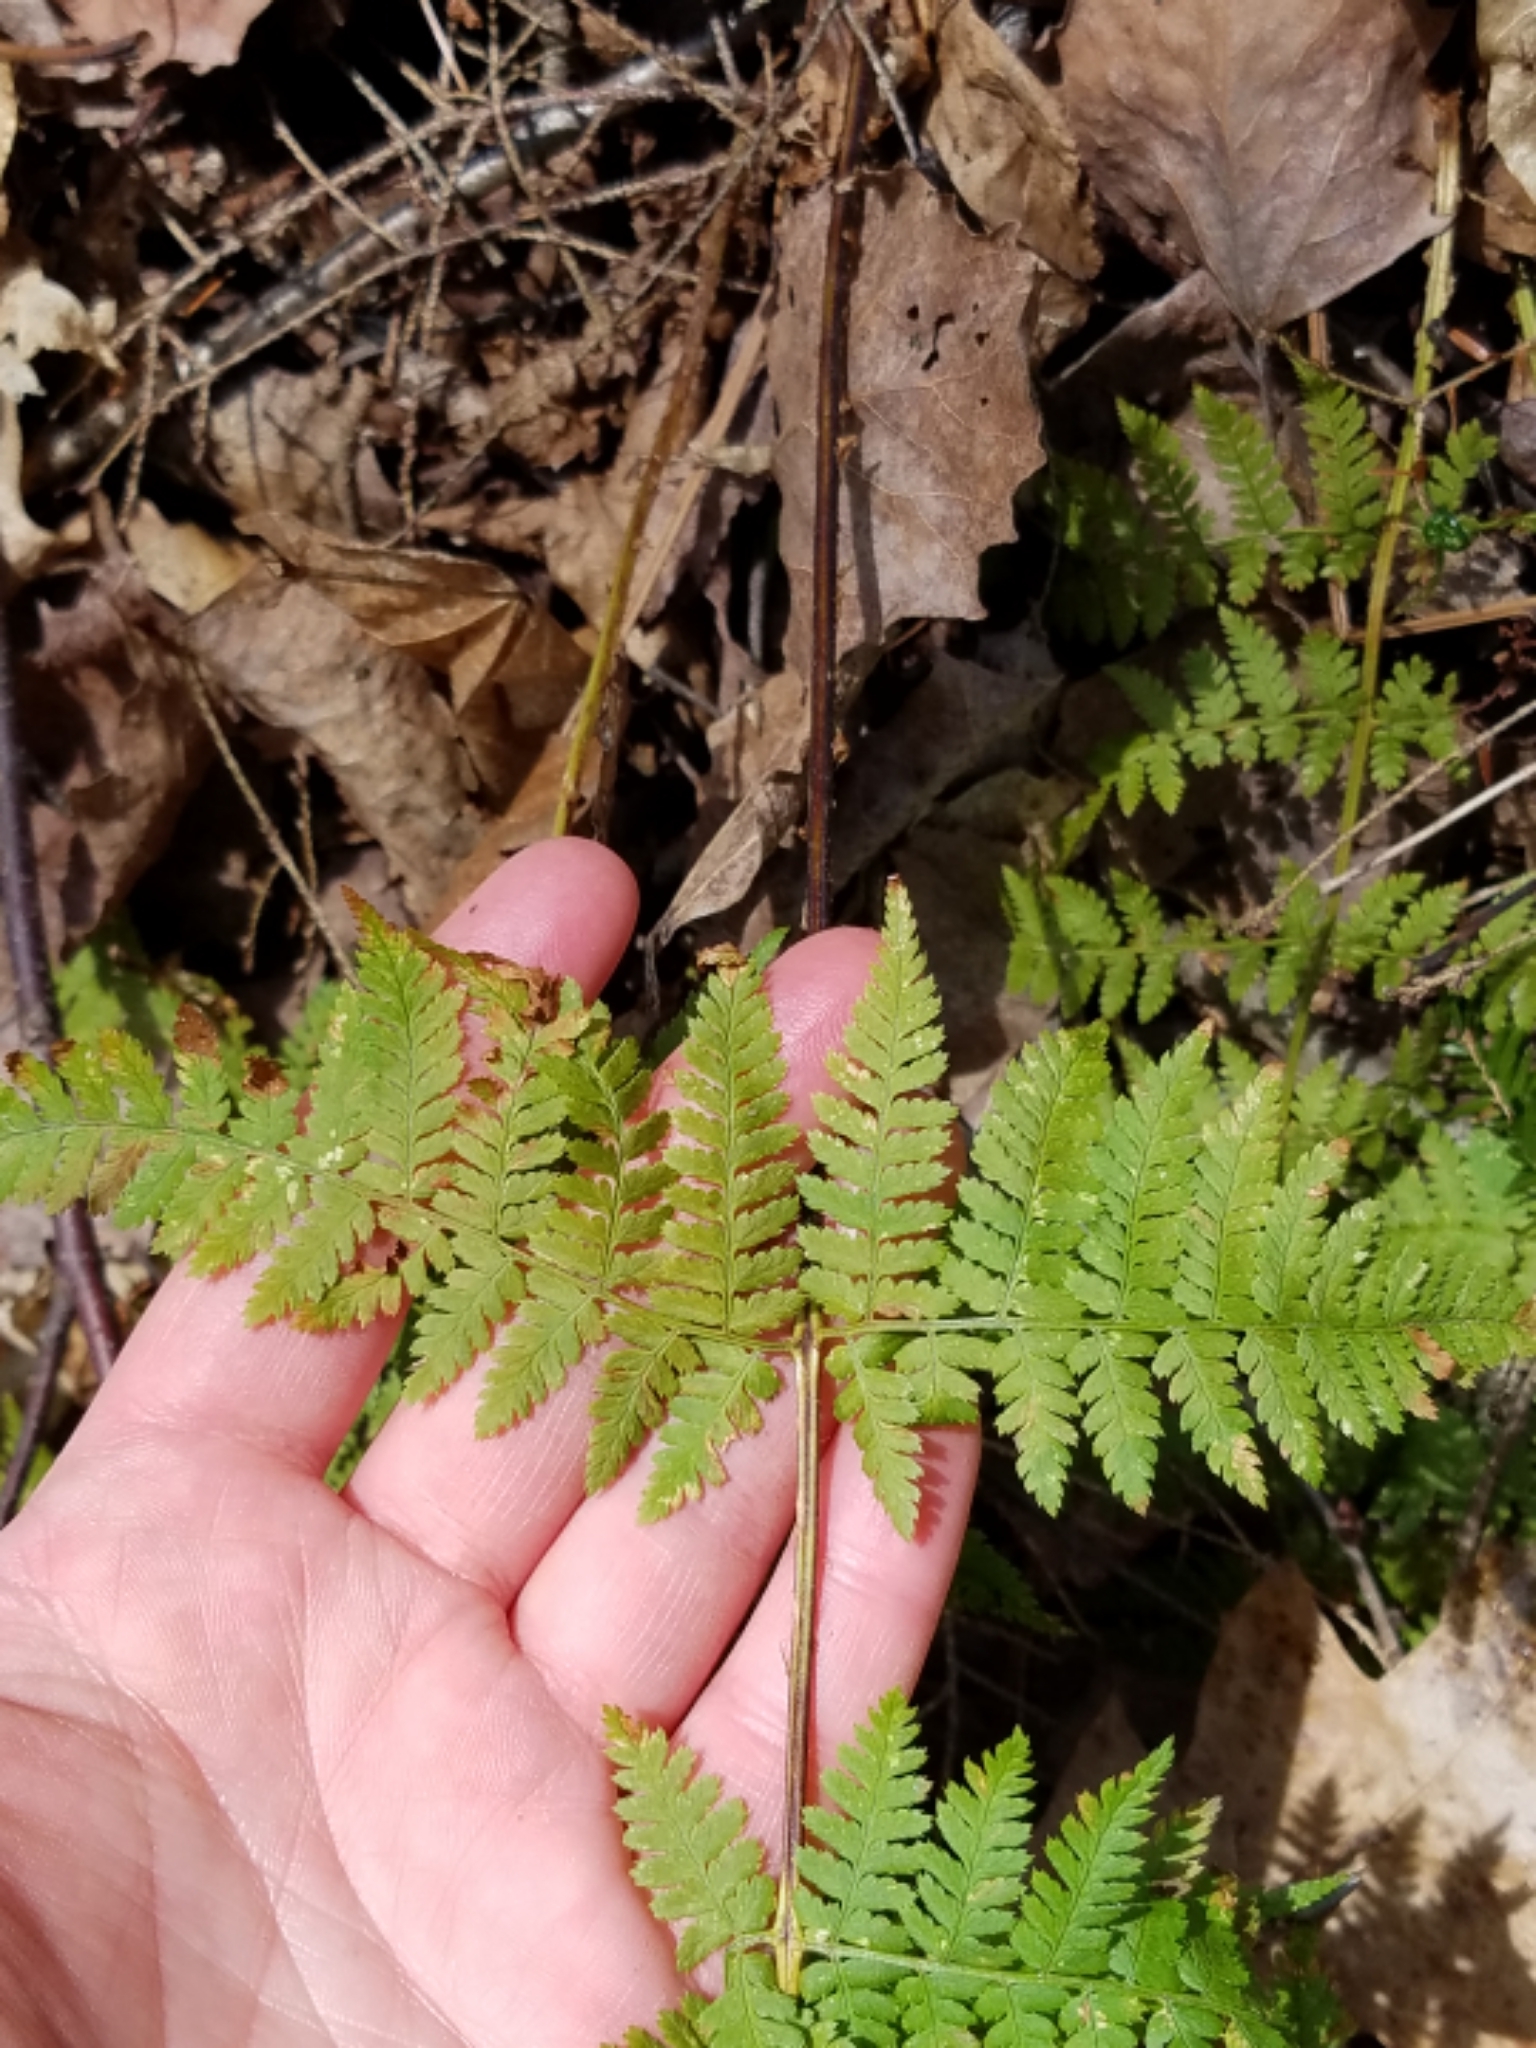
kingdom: Plantae
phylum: Tracheophyta
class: Polypodiopsida
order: Polypodiales
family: Dryopteridaceae
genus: Dryopteris
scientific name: Dryopteris carthusiana
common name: Narrow buckler-fern
